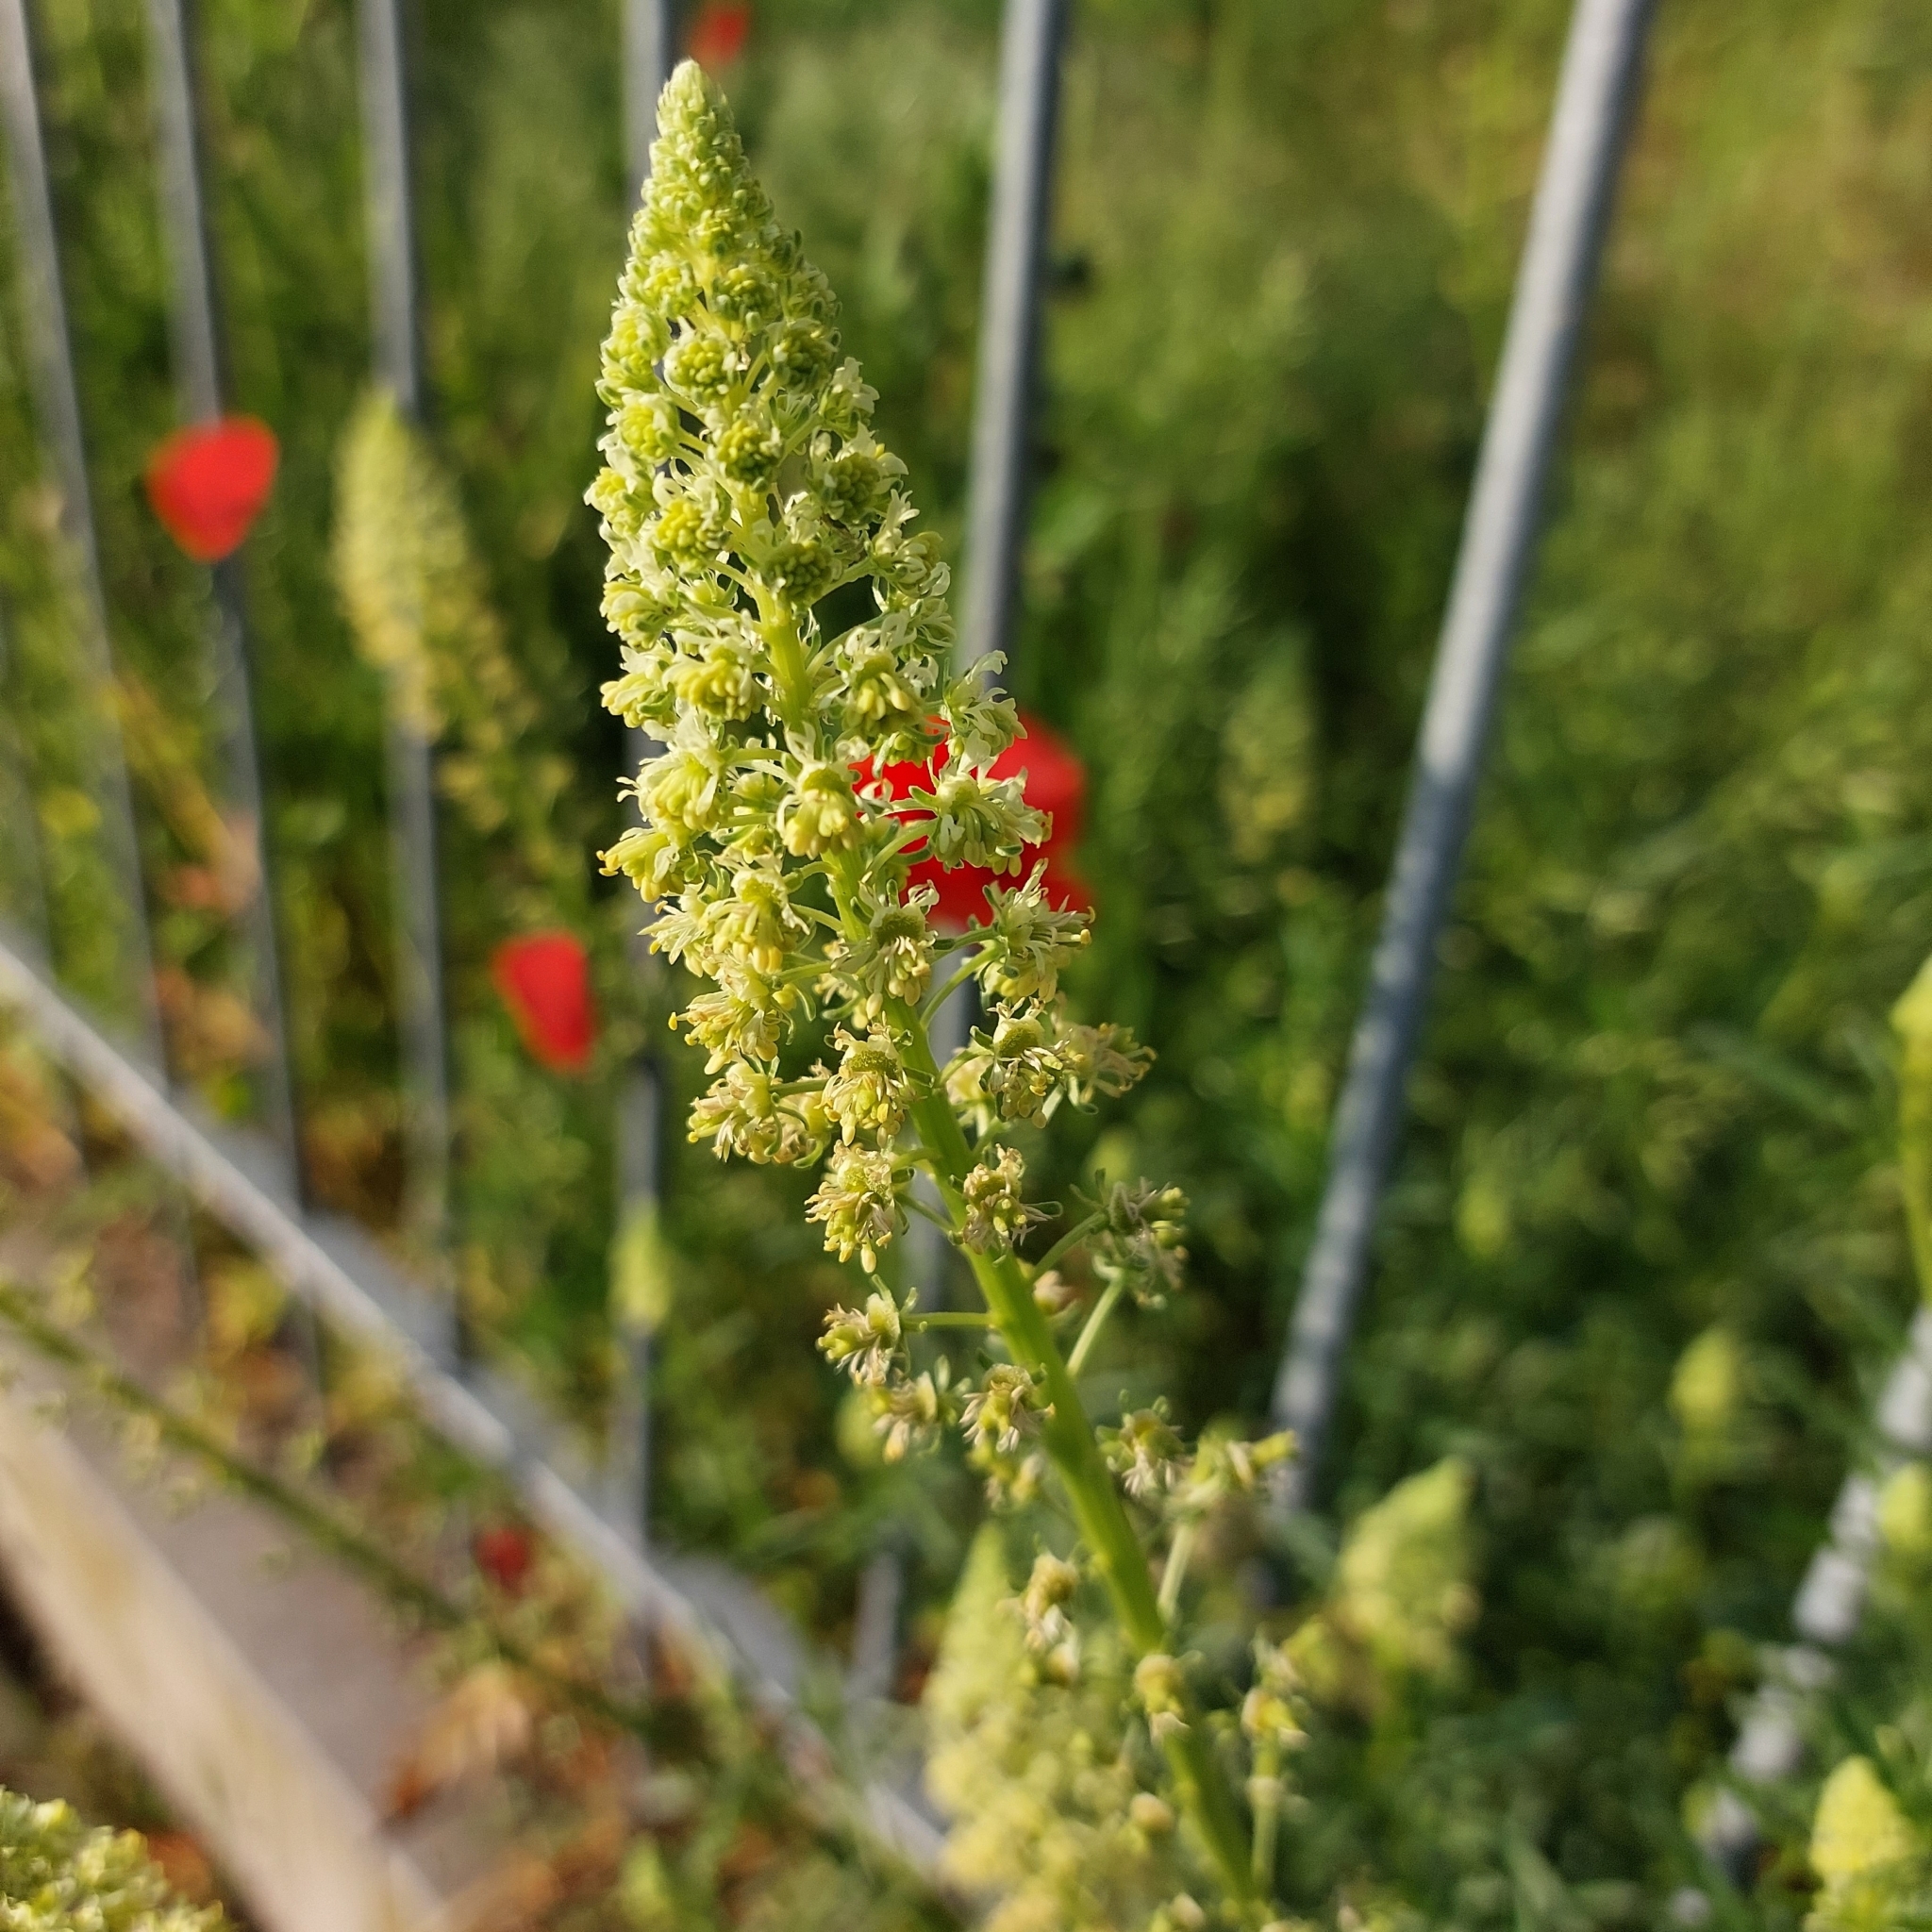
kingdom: Plantae
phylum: Tracheophyta
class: Magnoliopsida
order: Brassicales
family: Resedaceae
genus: Reseda
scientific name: Reseda luteola
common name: Weld
